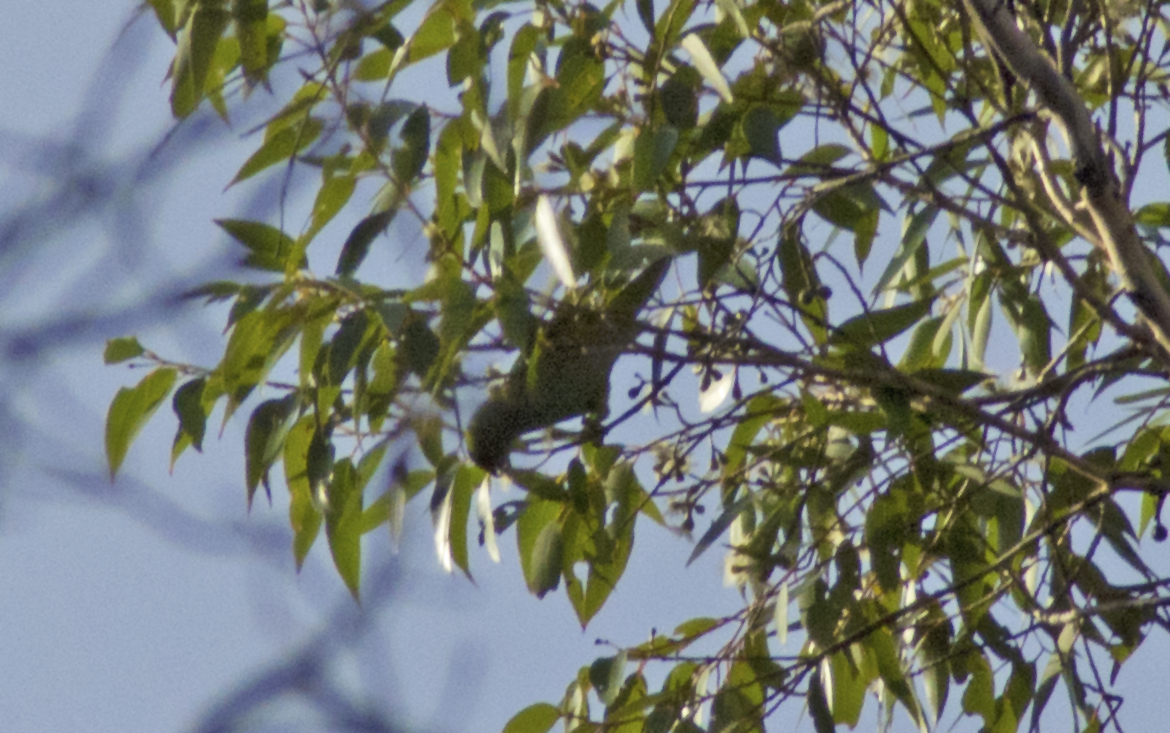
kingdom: Animalia
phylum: Chordata
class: Aves
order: Psittaciformes
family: Psittaculidae
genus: Parvipsitta
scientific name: Parvipsitta porphyrocephala
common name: Purple-crowned lorikeet
